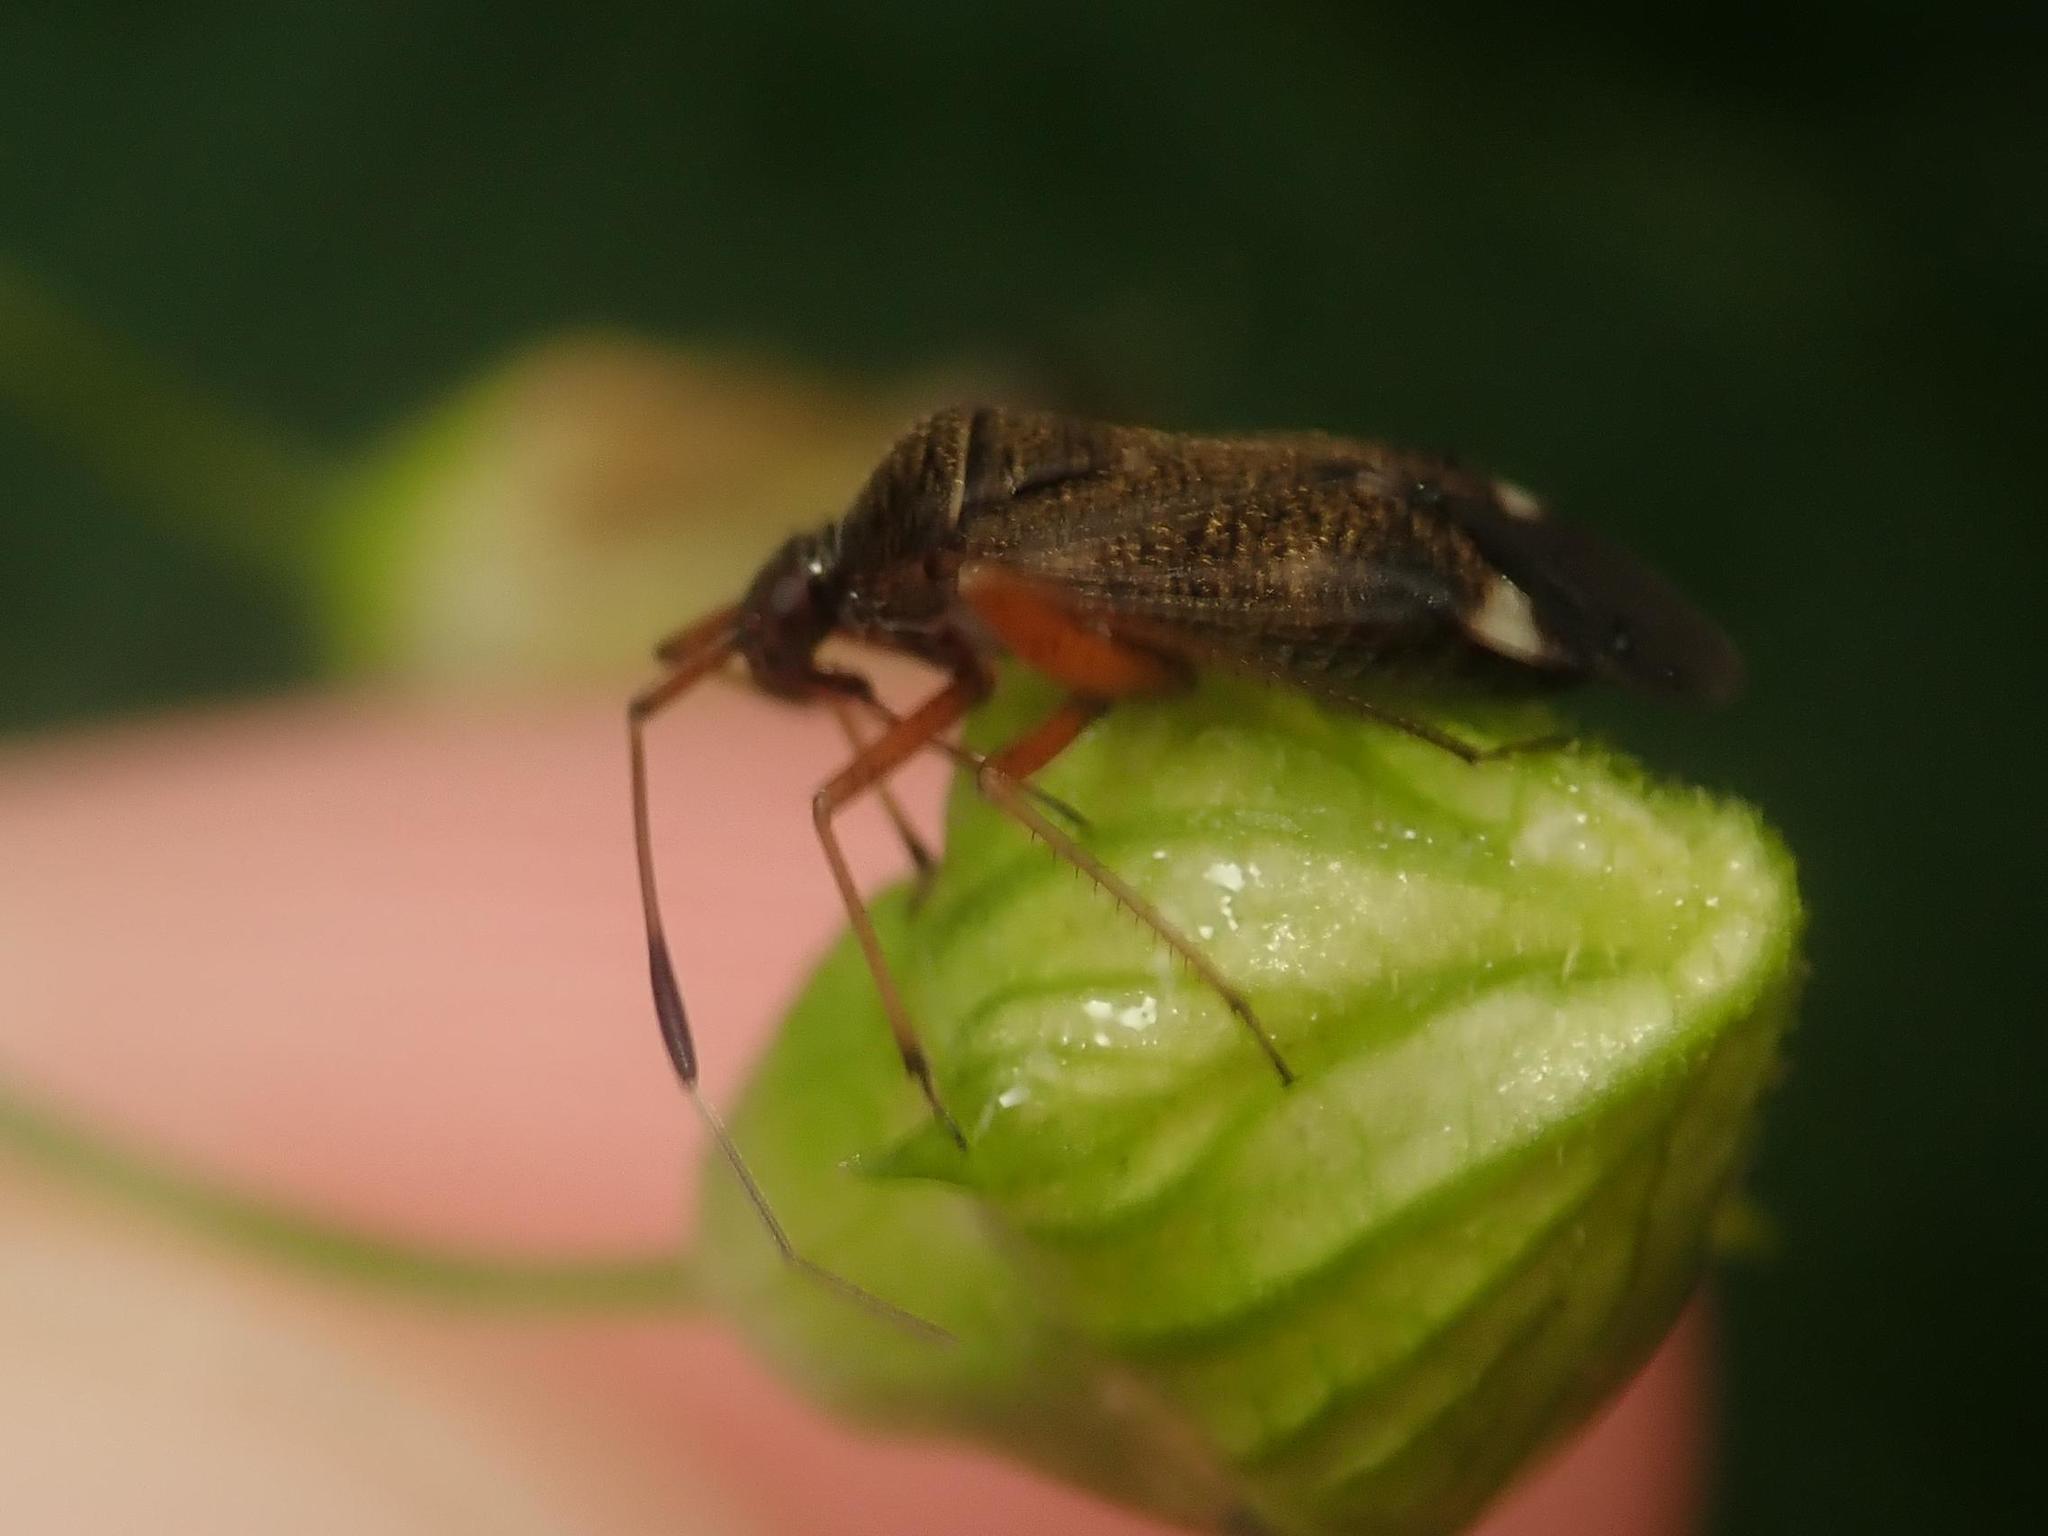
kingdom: Animalia
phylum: Arthropoda
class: Insecta
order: Hemiptera
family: Miridae
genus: Closterotomus
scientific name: Closterotomus biclavatus
